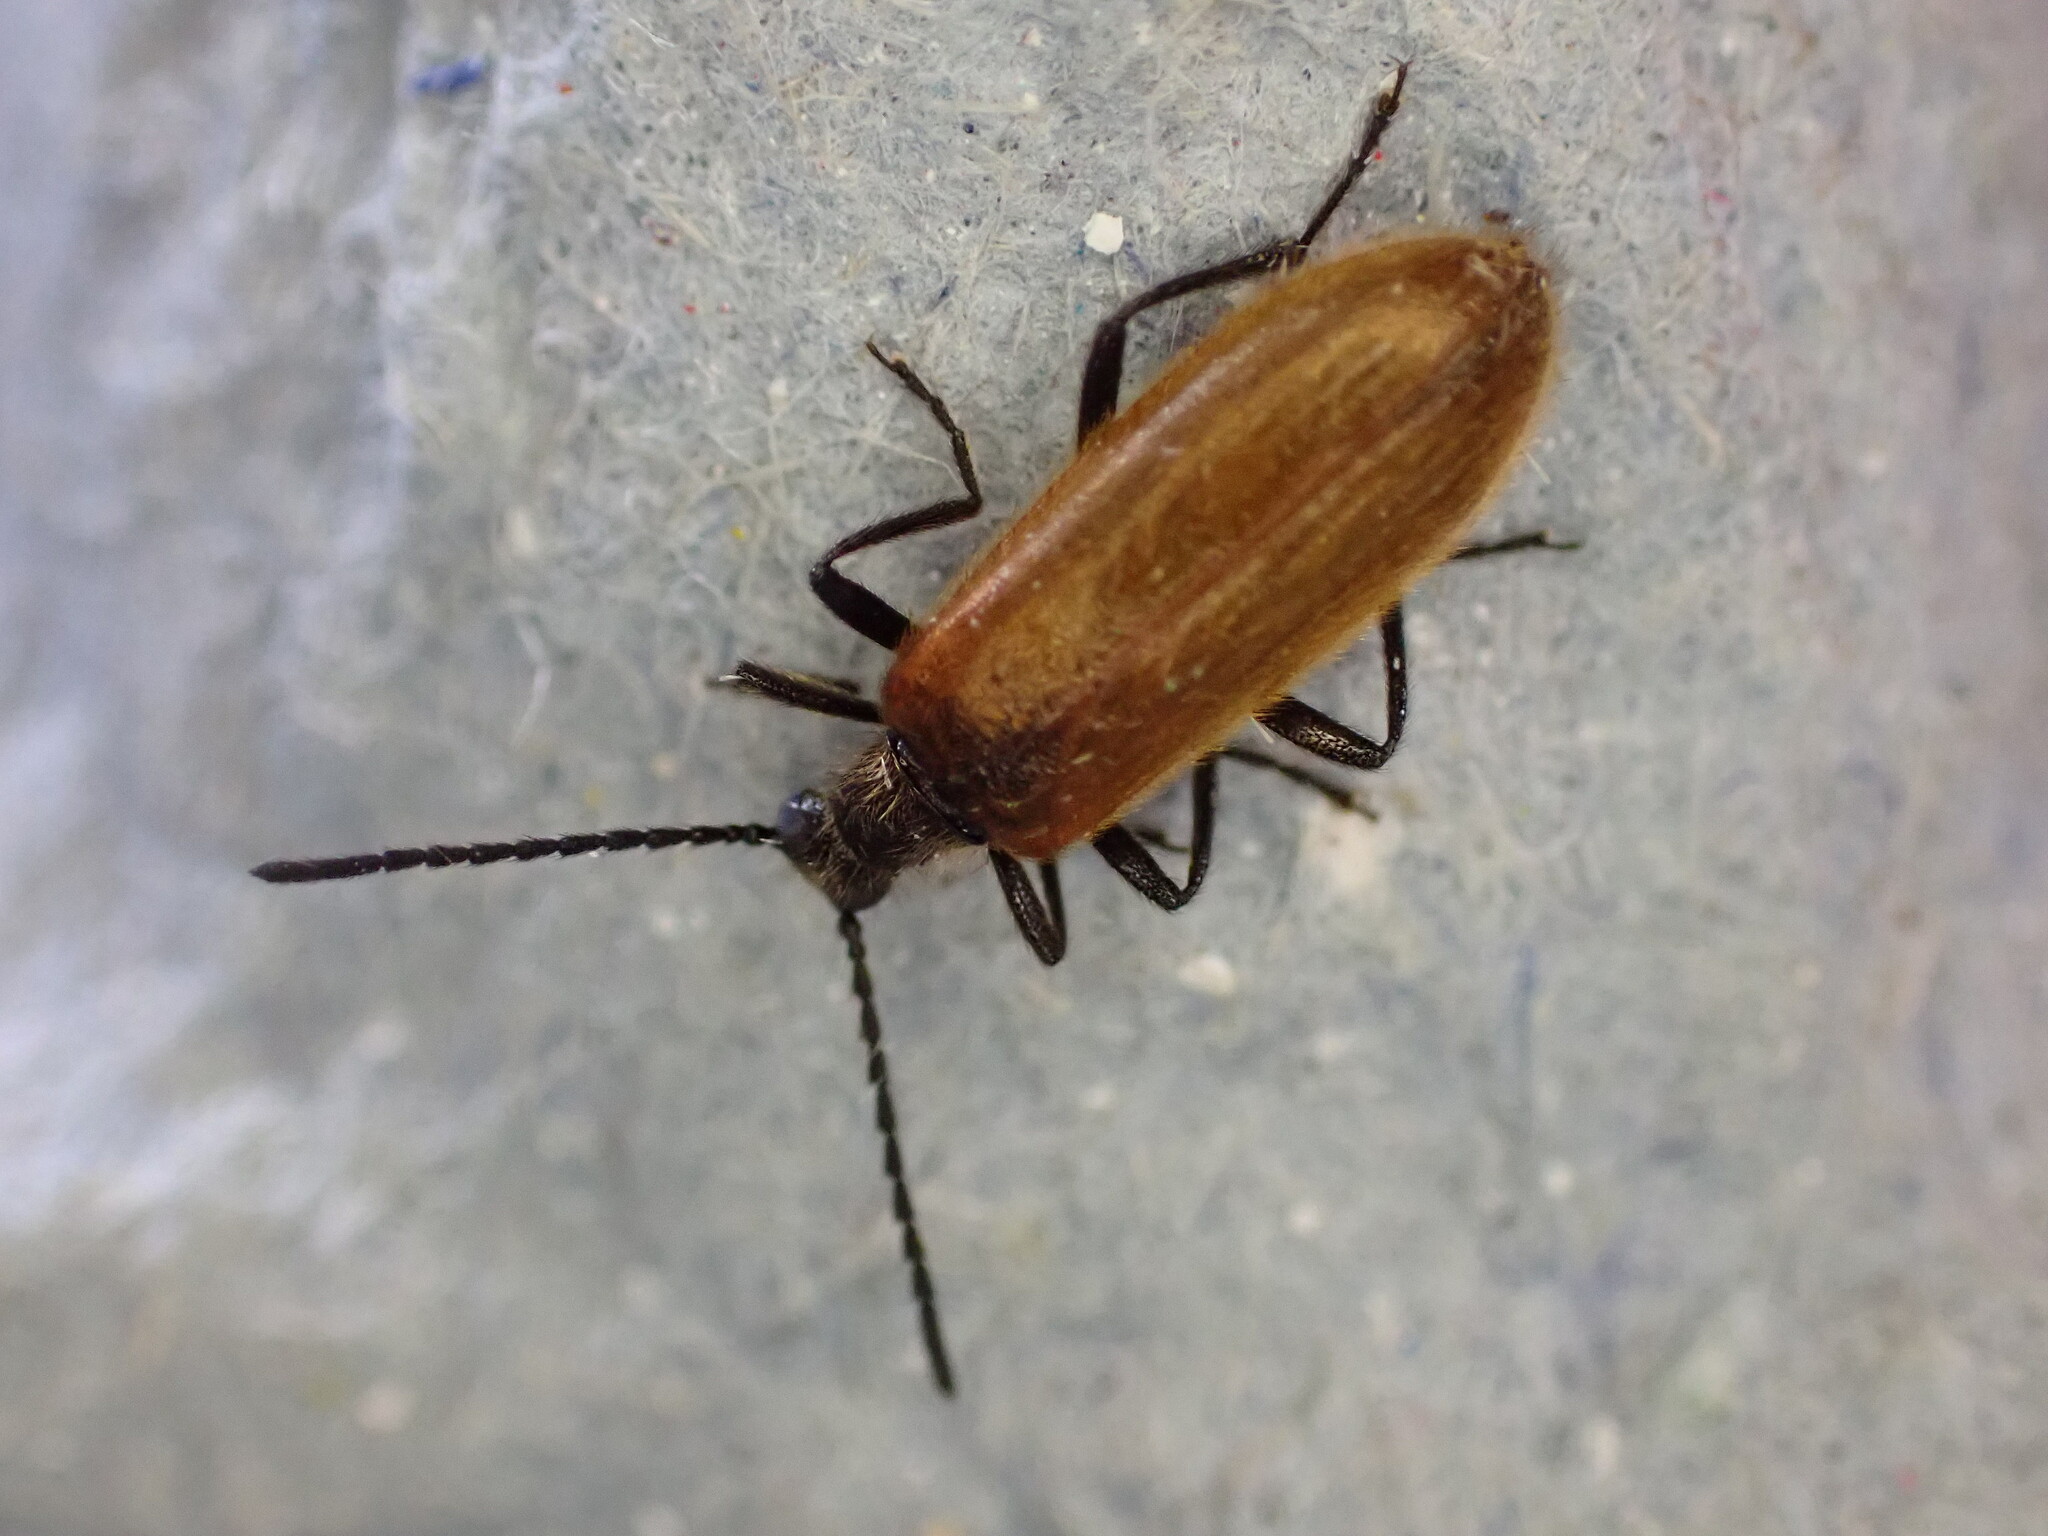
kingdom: Animalia
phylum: Arthropoda
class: Insecta
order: Coleoptera
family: Tenebrionidae
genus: Lagria
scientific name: Lagria hirta
